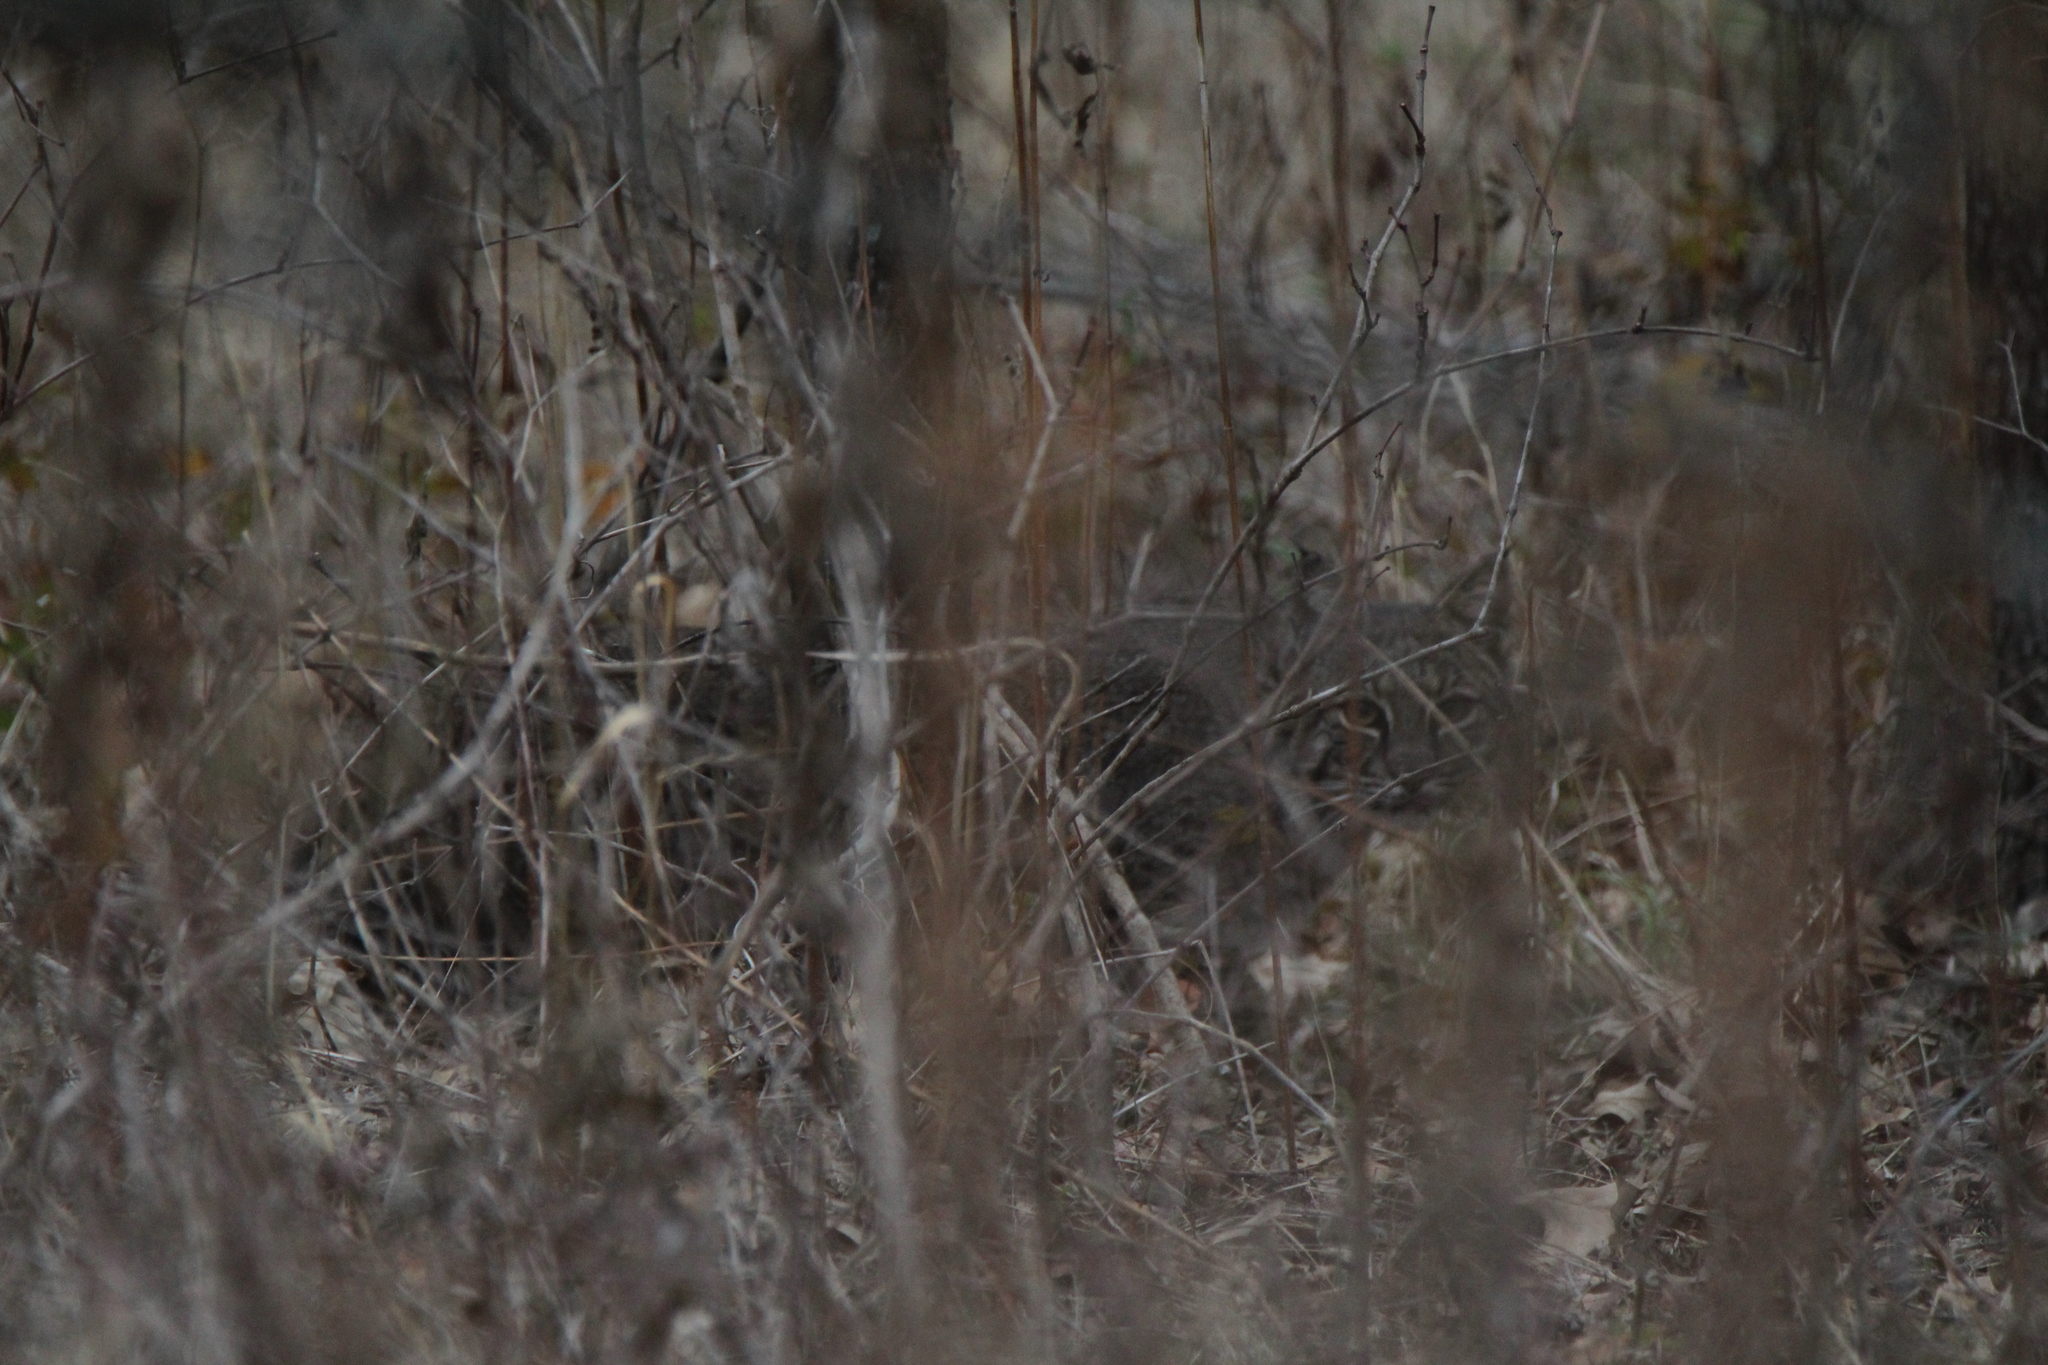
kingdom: Animalia
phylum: Chordata
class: Mammalia
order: Carnivora
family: Felidae
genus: Lynx
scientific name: Lynx rufus
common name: Bobcat
